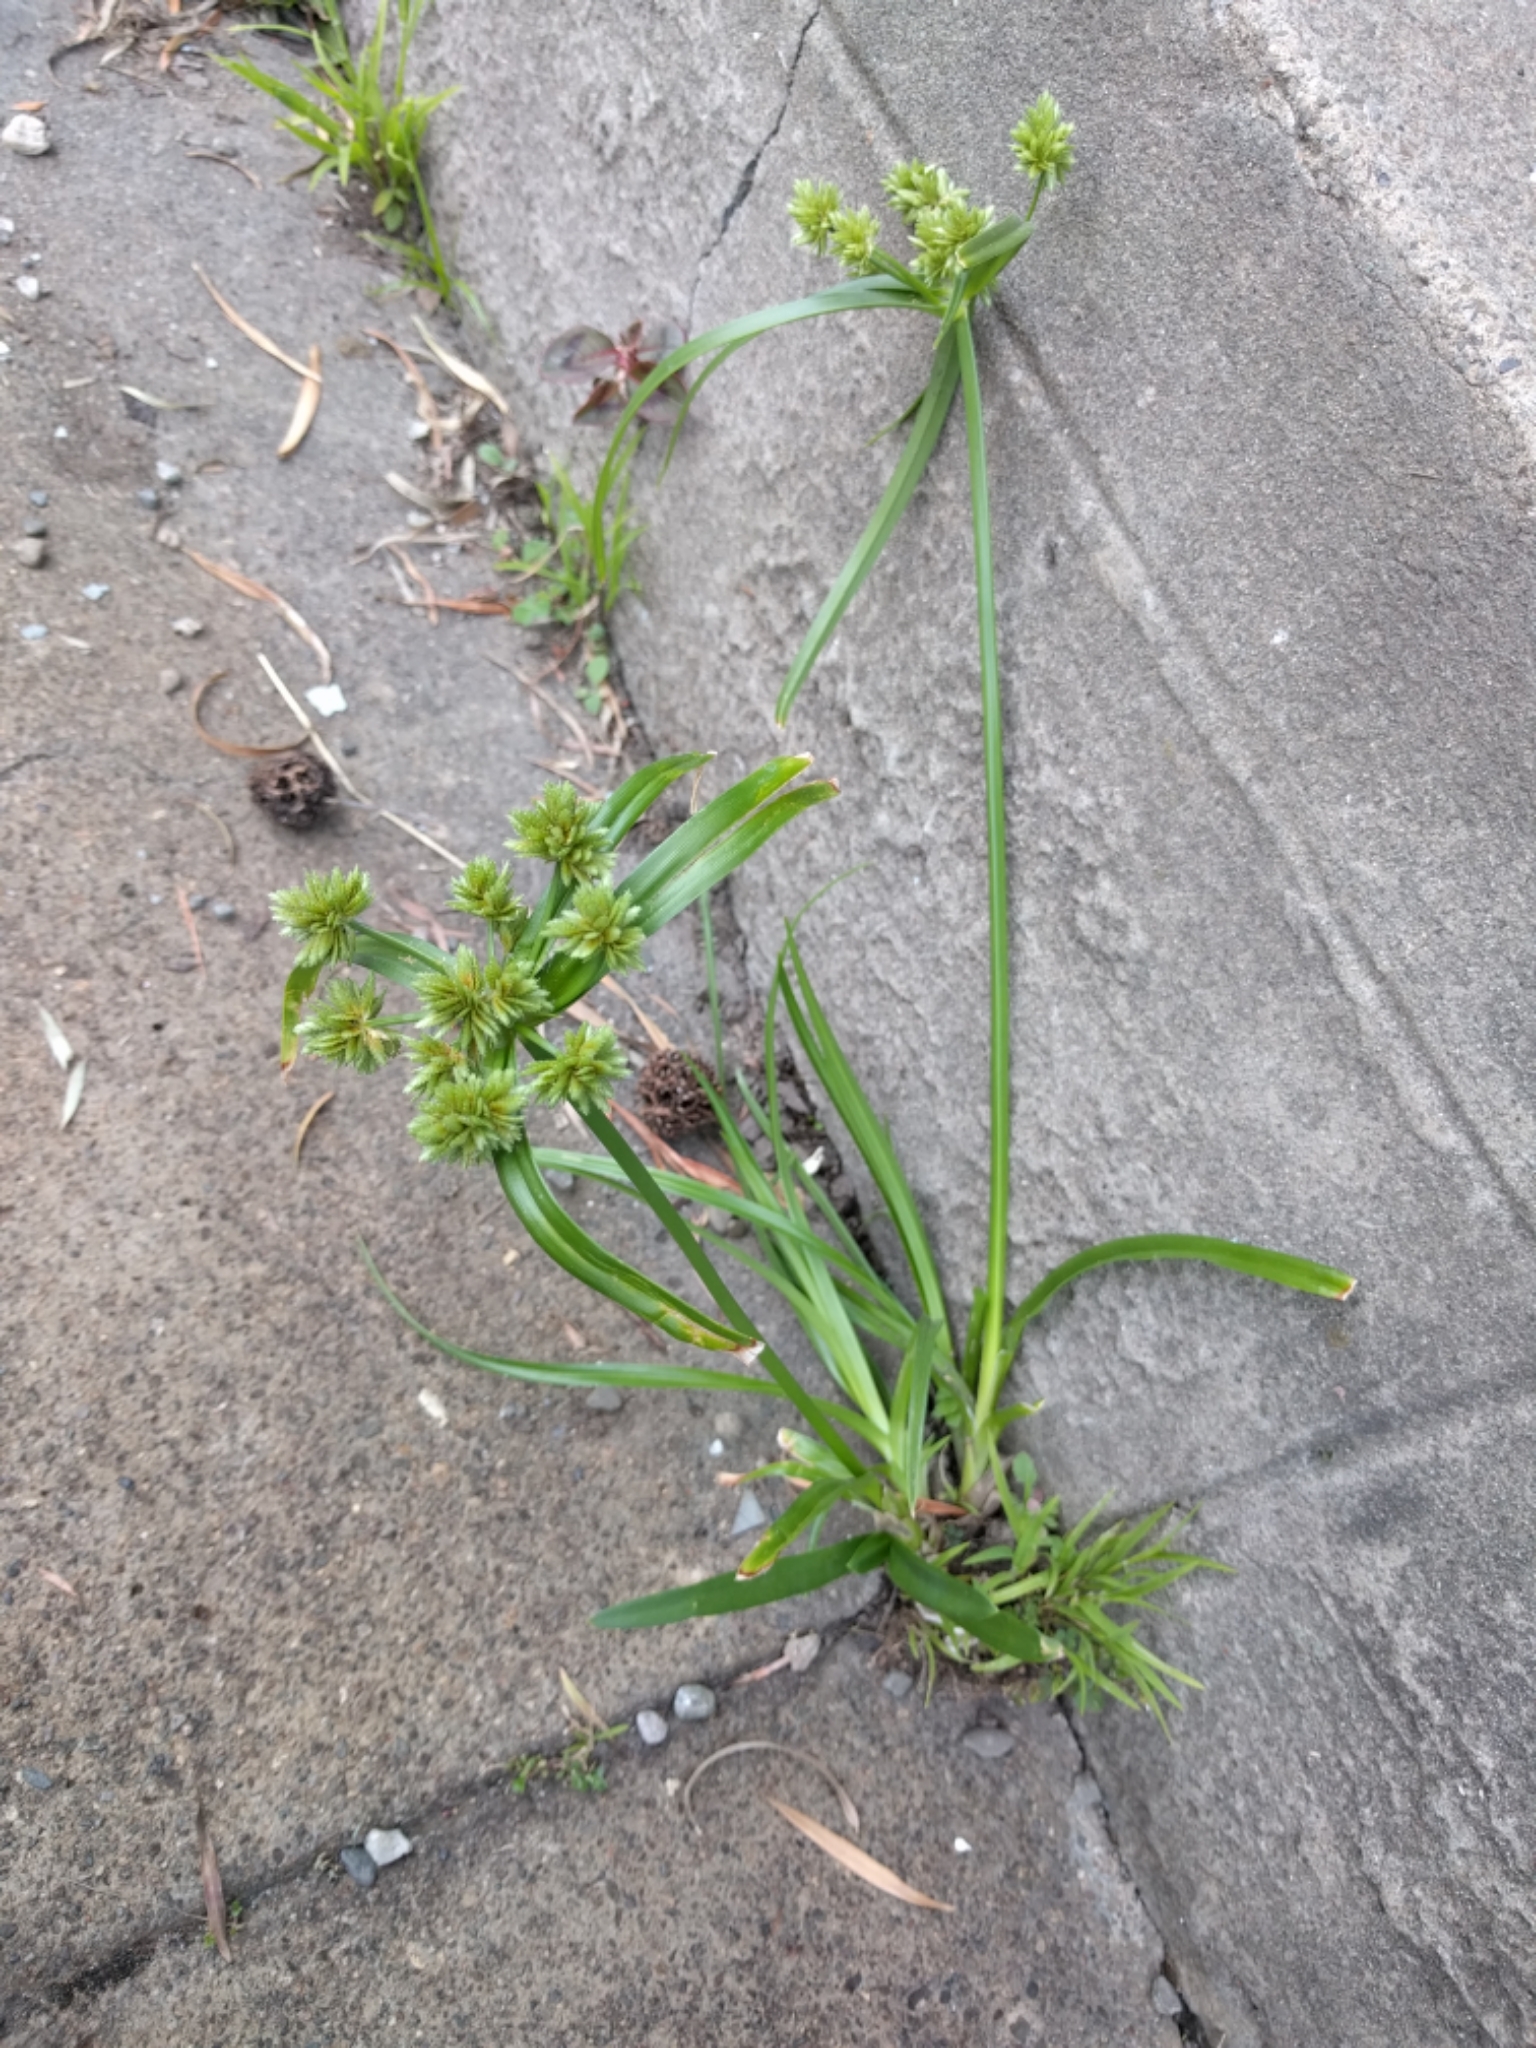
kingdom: Plantae
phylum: Tracheophyta
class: Liliopsida
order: Poales
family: Cyperaceae
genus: Cyperus
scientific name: Cyperus eragrostis
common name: Tall flatsedge
